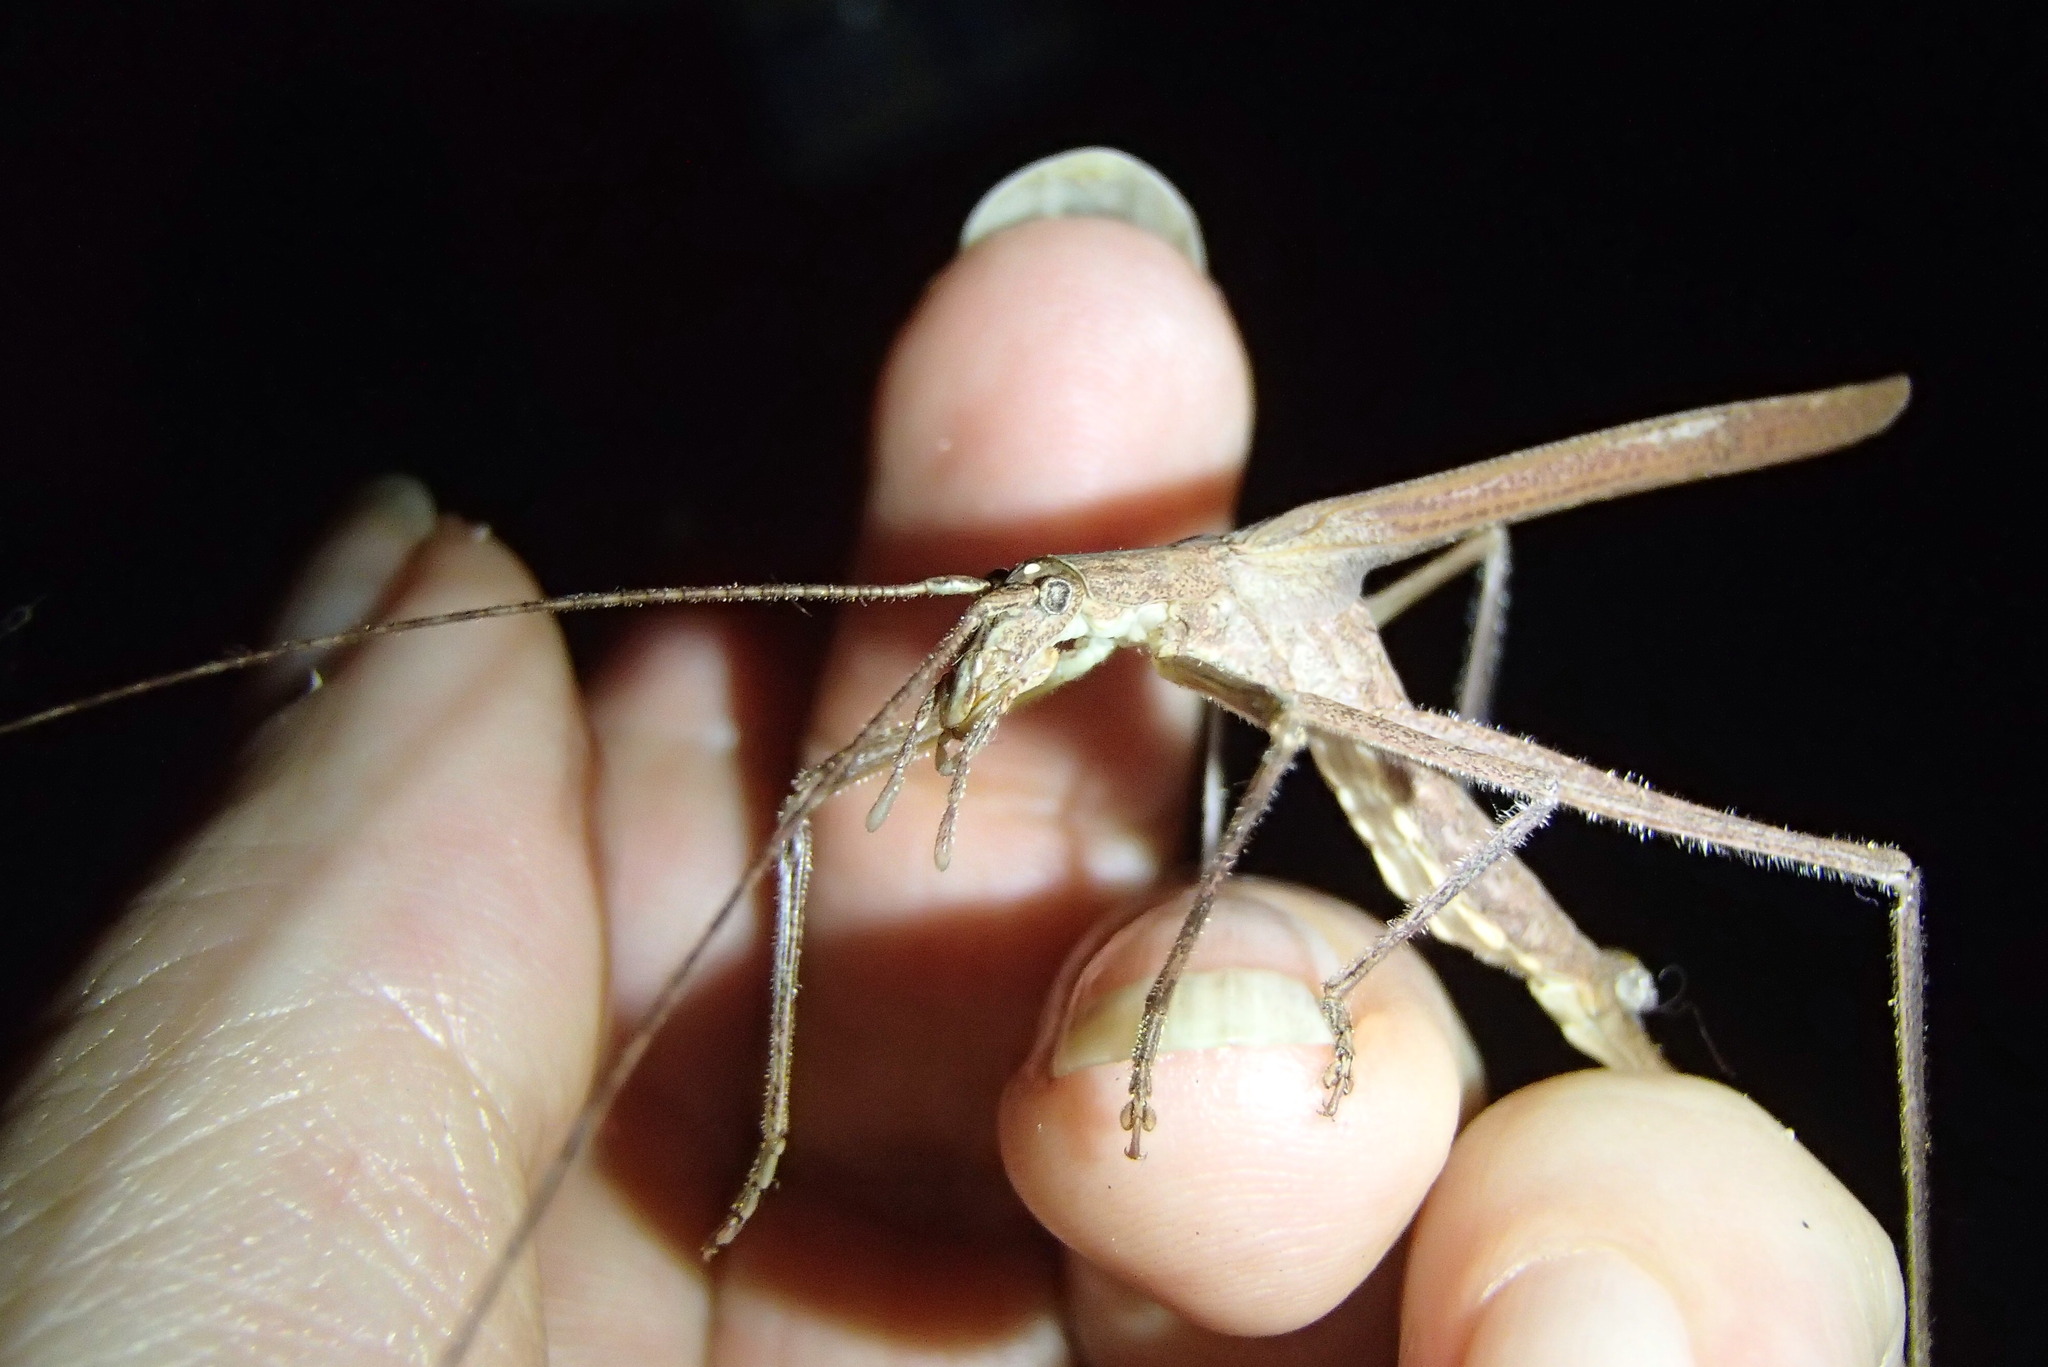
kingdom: Animalia
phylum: Arthropoda
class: Insecta
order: Orthoptera
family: Tettigoniidae
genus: Zaprochilus
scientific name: Zaprochilus australis
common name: Australian twig-mimicking katydid
